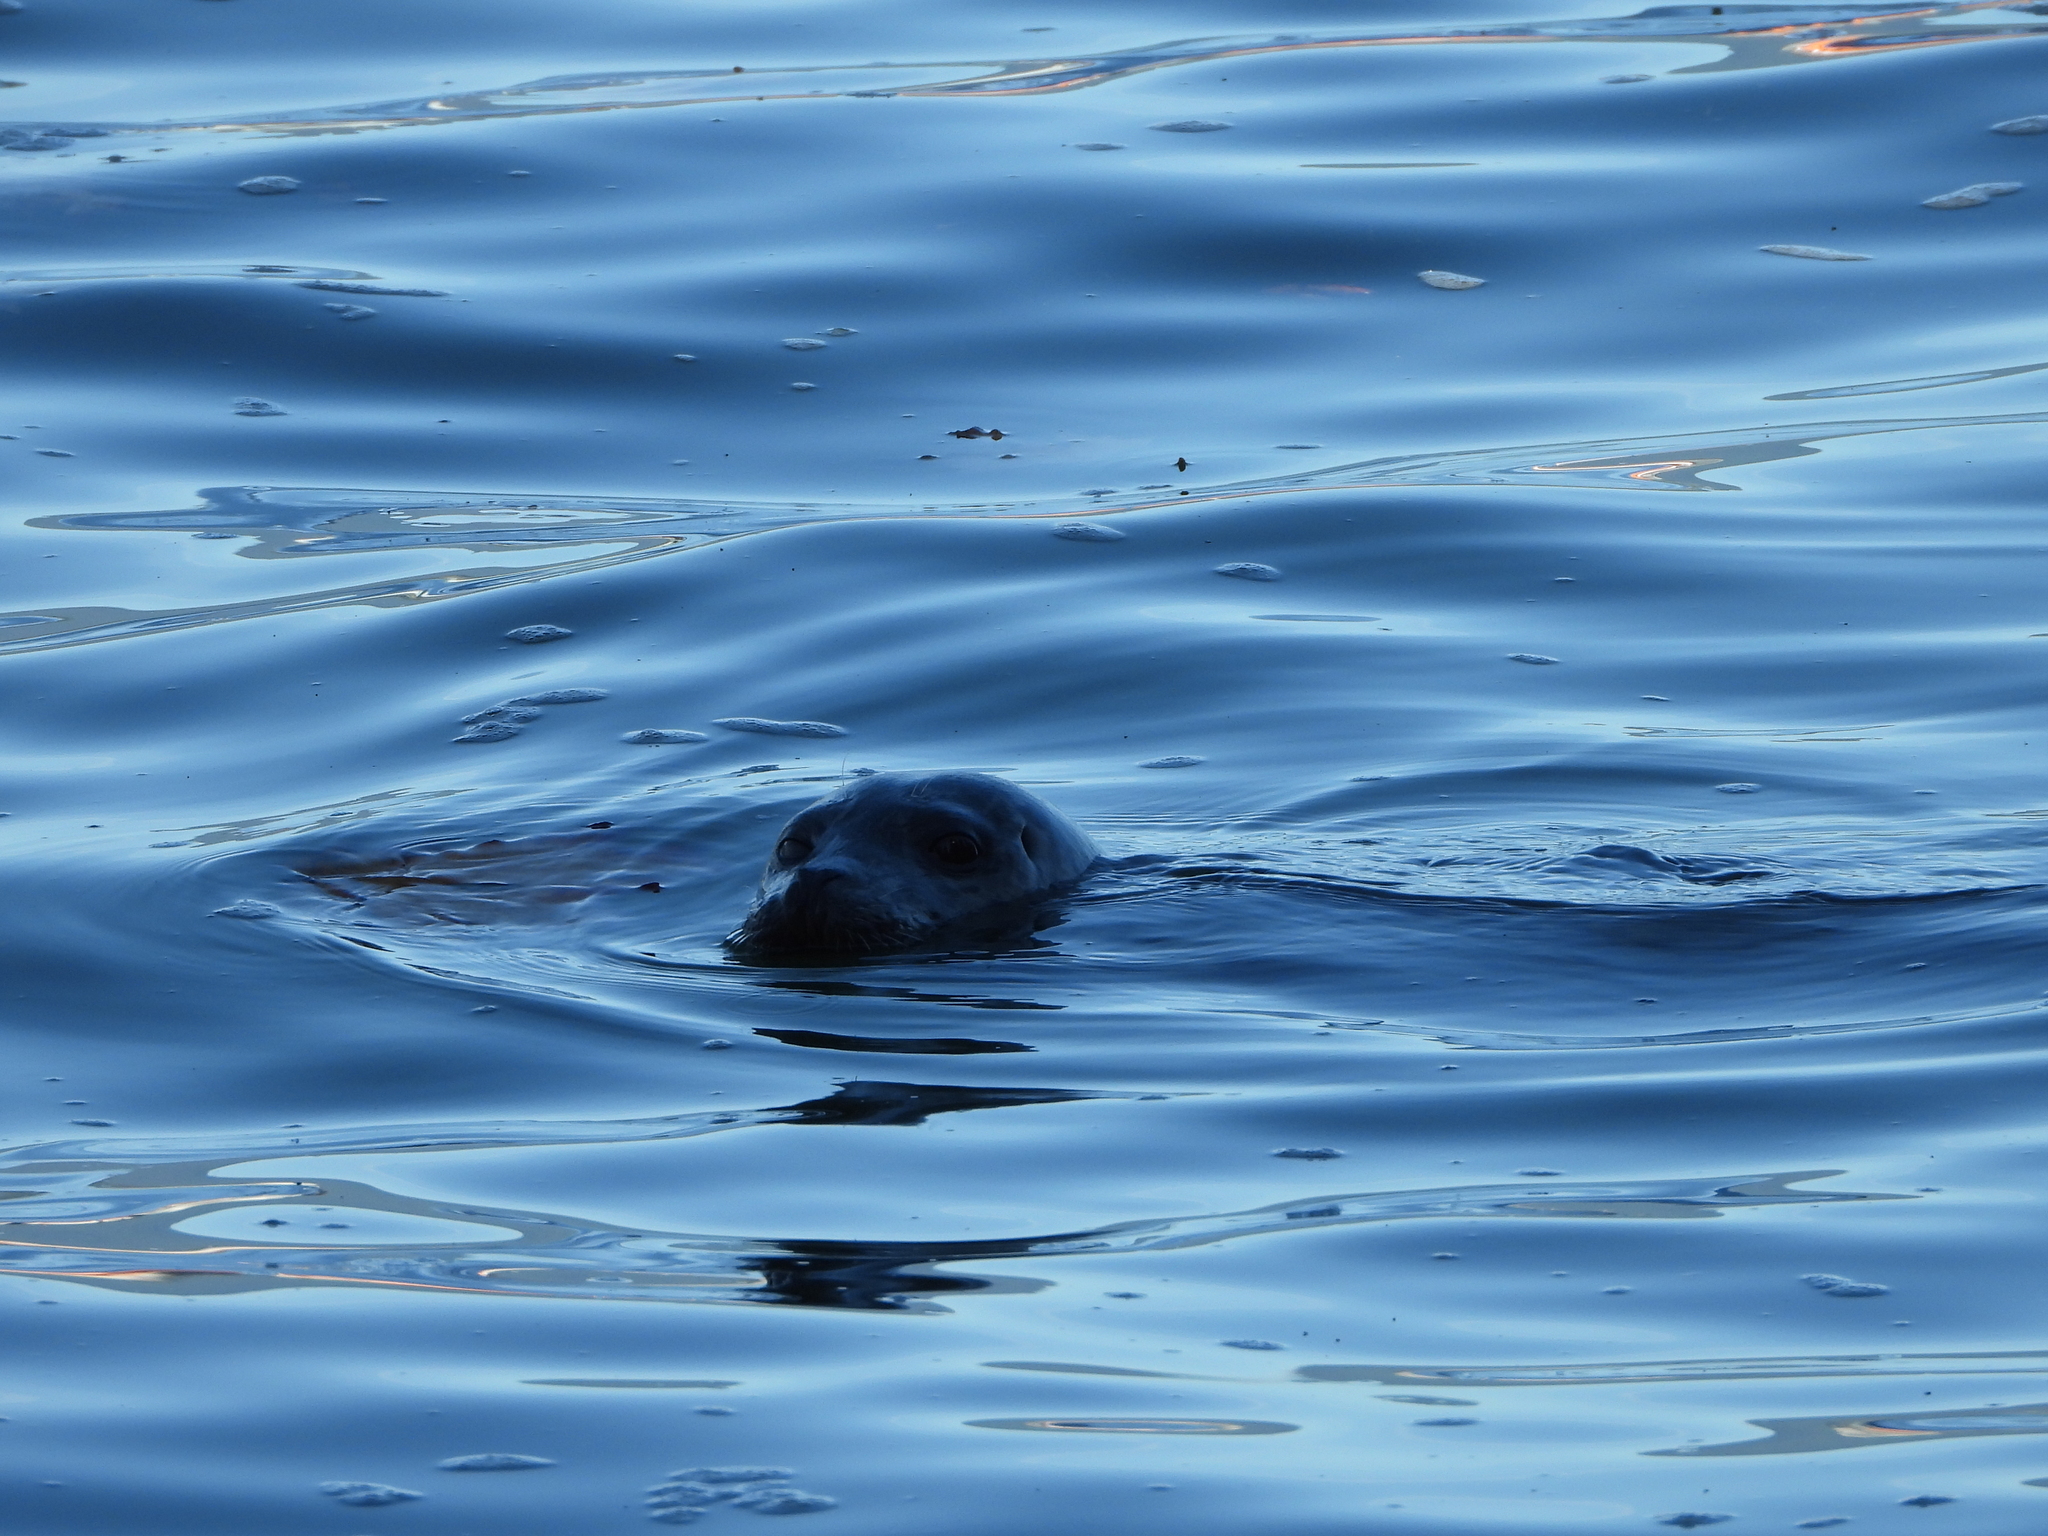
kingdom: Animalia
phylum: Chordata
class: Mammalia
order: Carnivora
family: Phocidae
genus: Phoca
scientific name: Phoca vitulina
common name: Harbor seal
